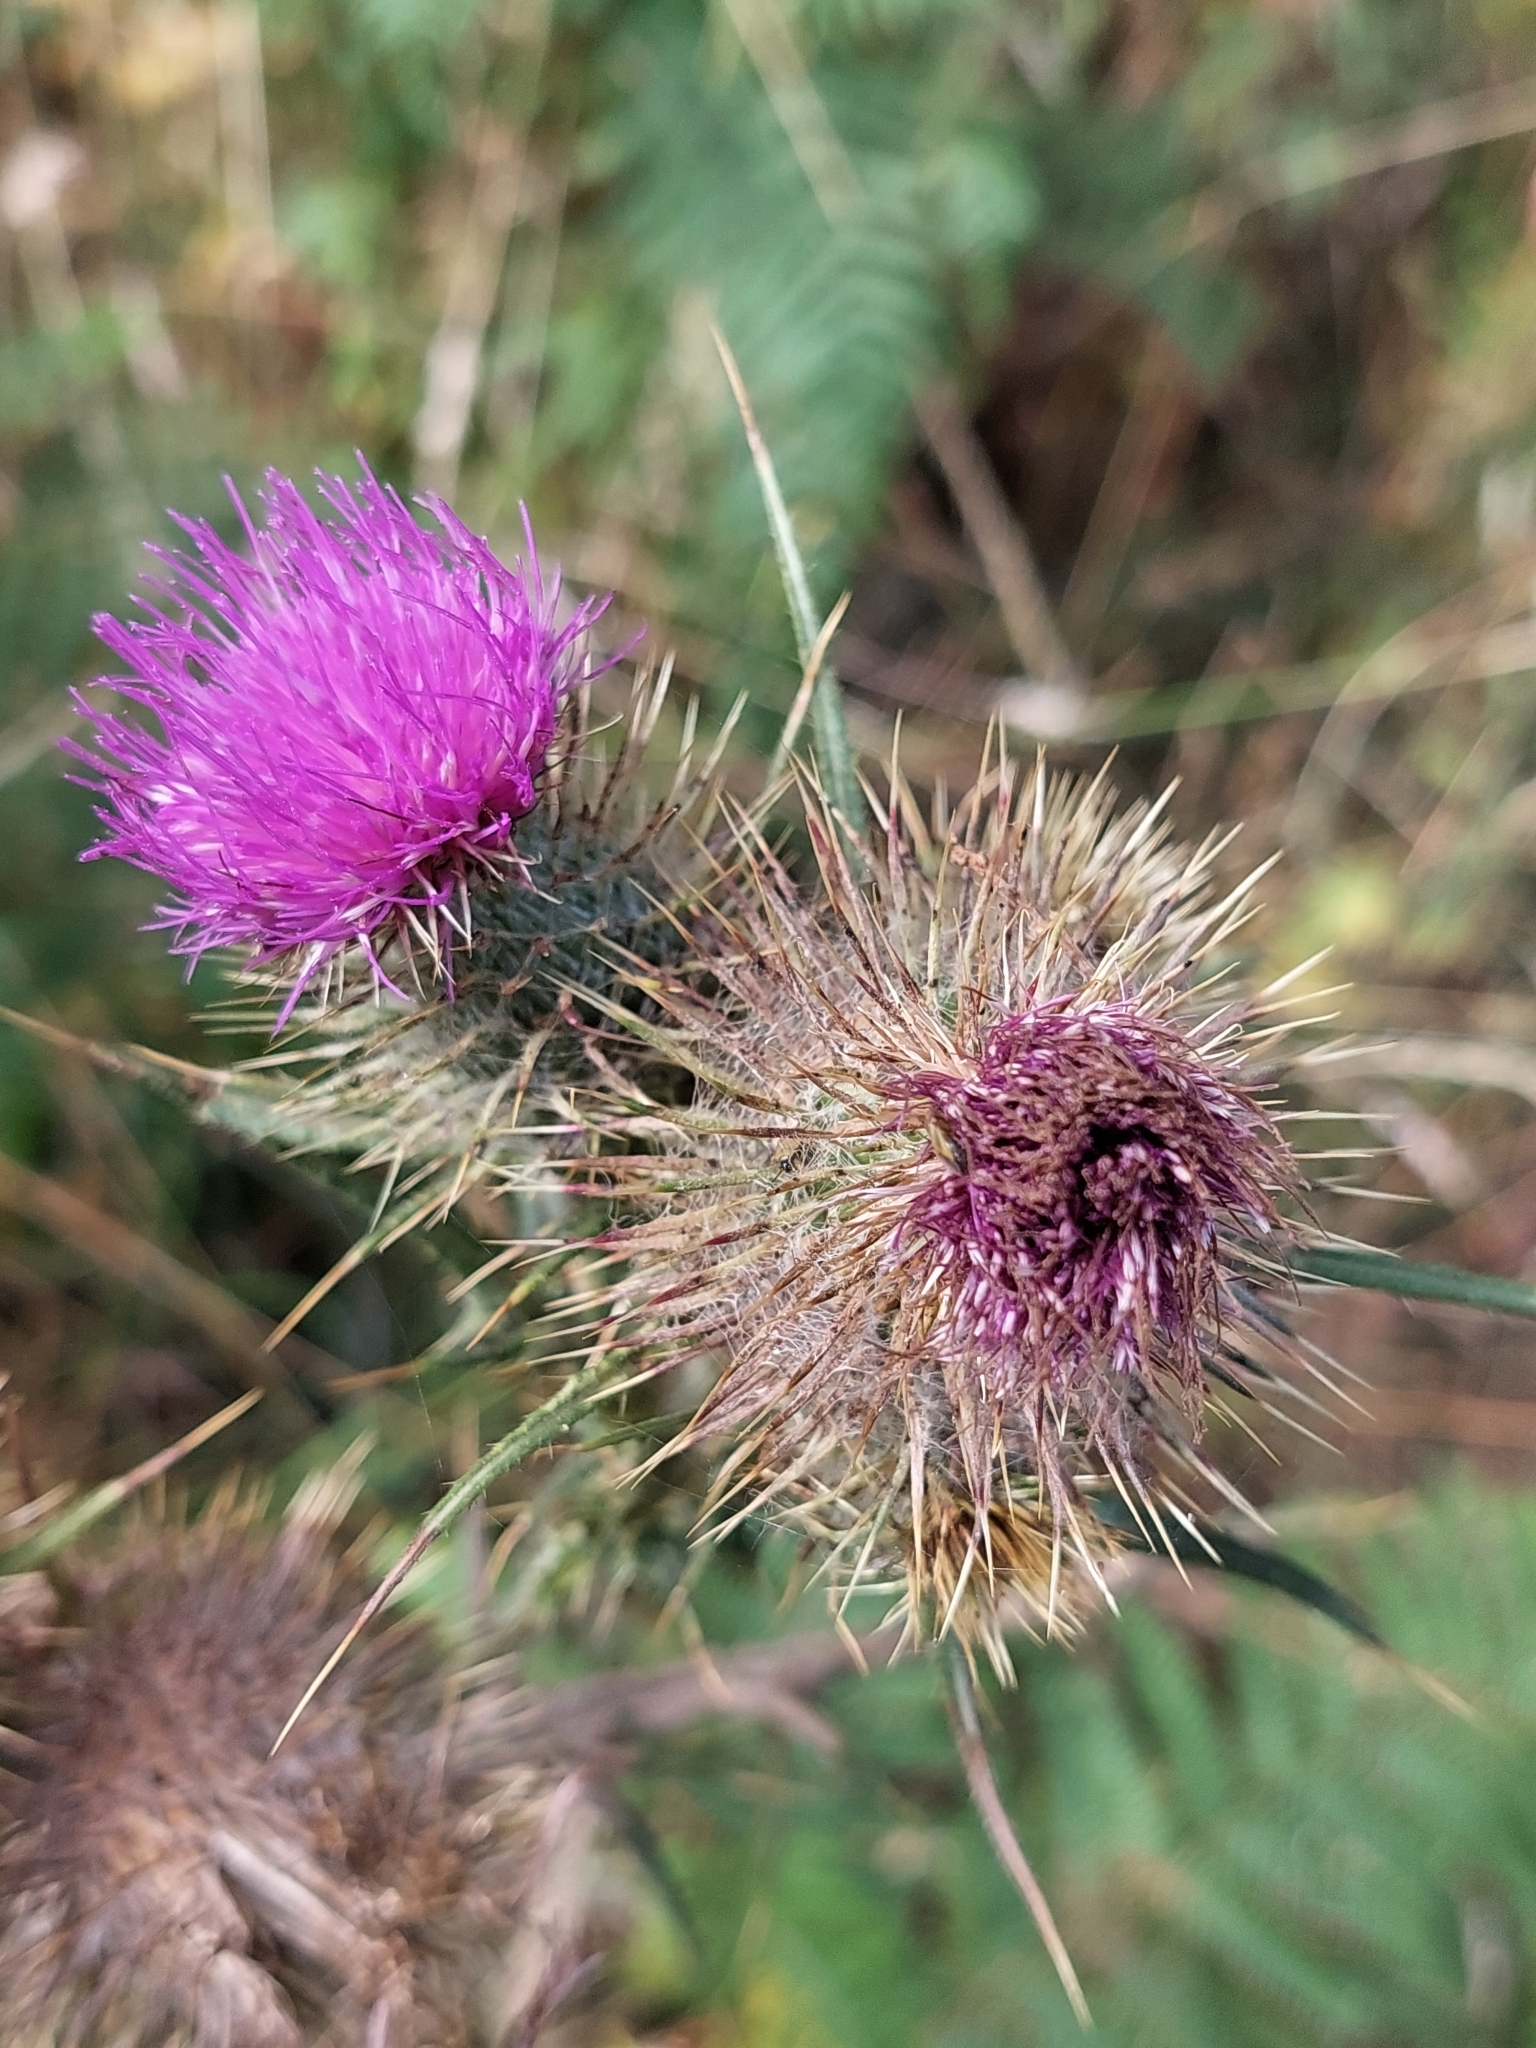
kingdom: Plantae
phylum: Tracheophyta
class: Magnoliopsida
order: Asterales
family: Asteraceae
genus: Cirsium
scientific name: Cirsium vulgare
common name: Bull thistle
